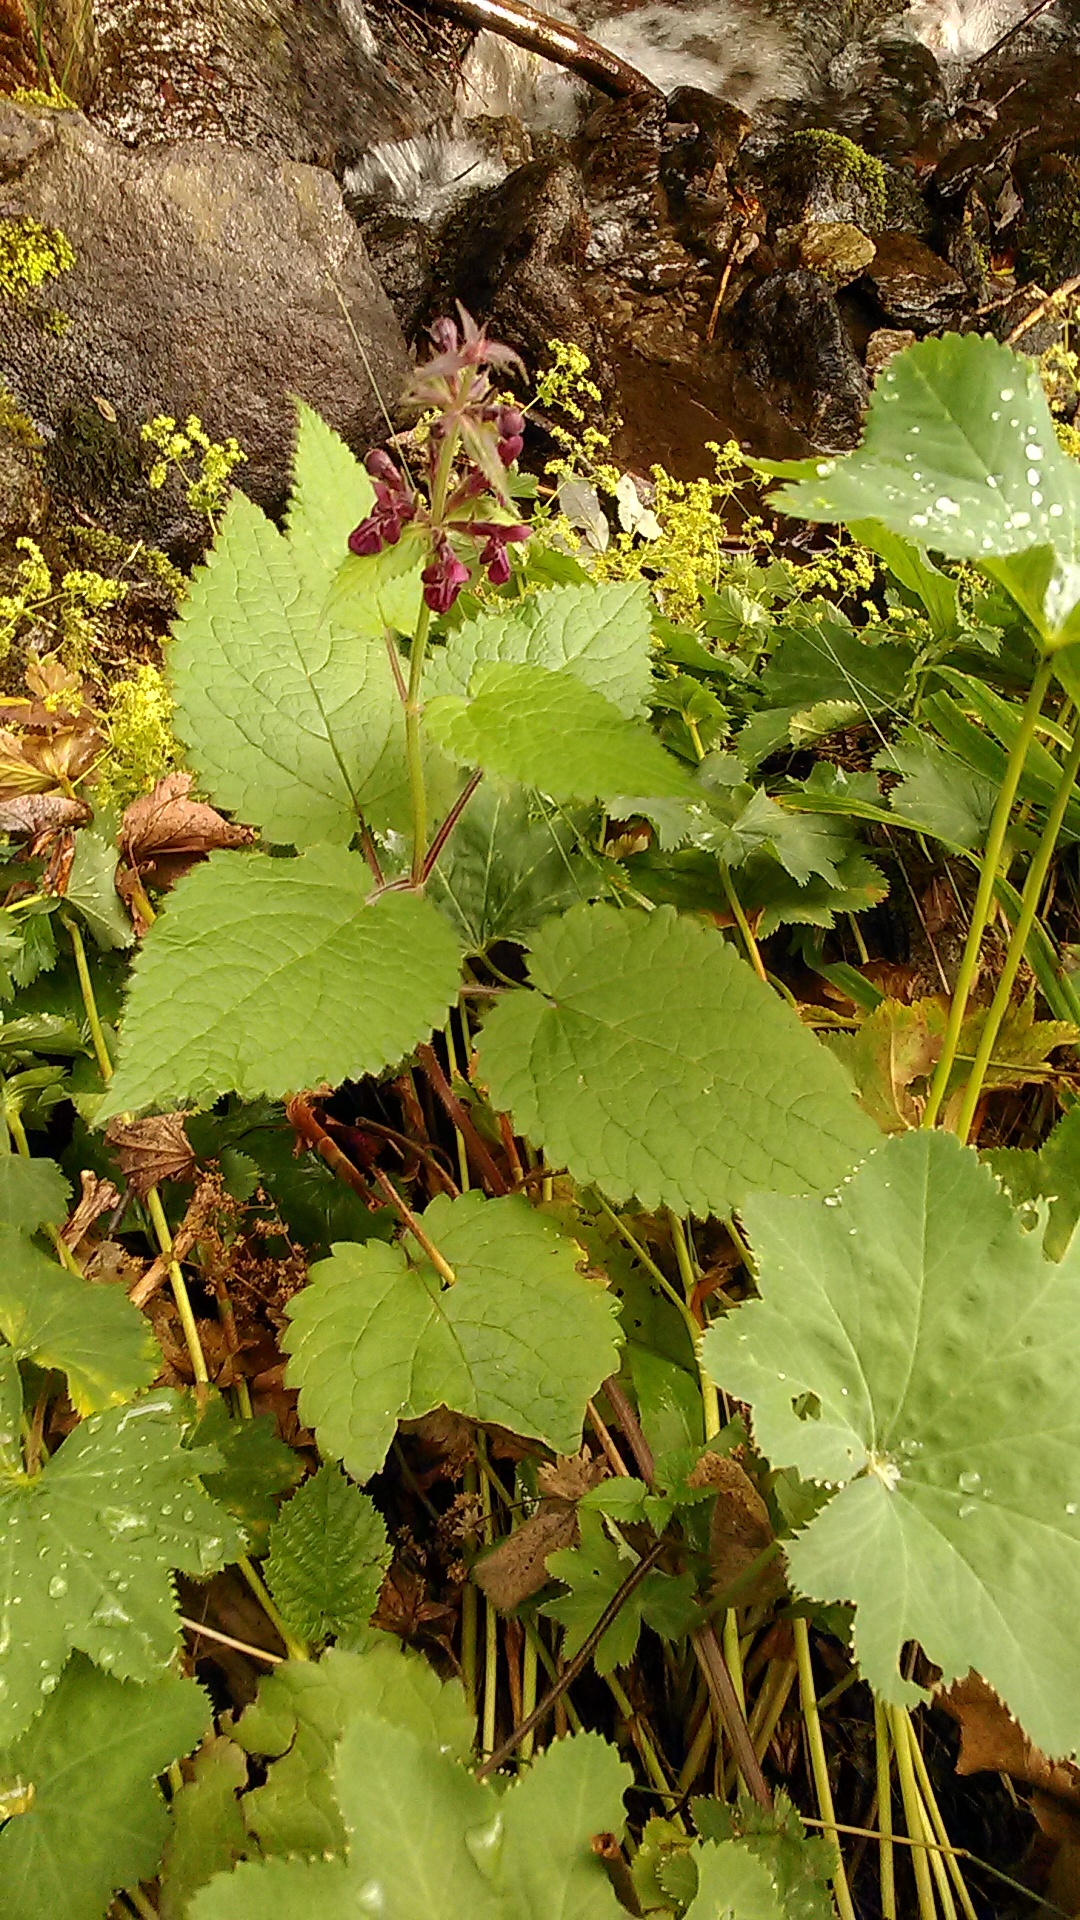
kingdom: Plantae
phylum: Tracheophyta
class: Magnoliopsida
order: Lamiales
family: Lamiaceae
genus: Stachys
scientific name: Stachys sylvatica
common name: Hedge woundwort
